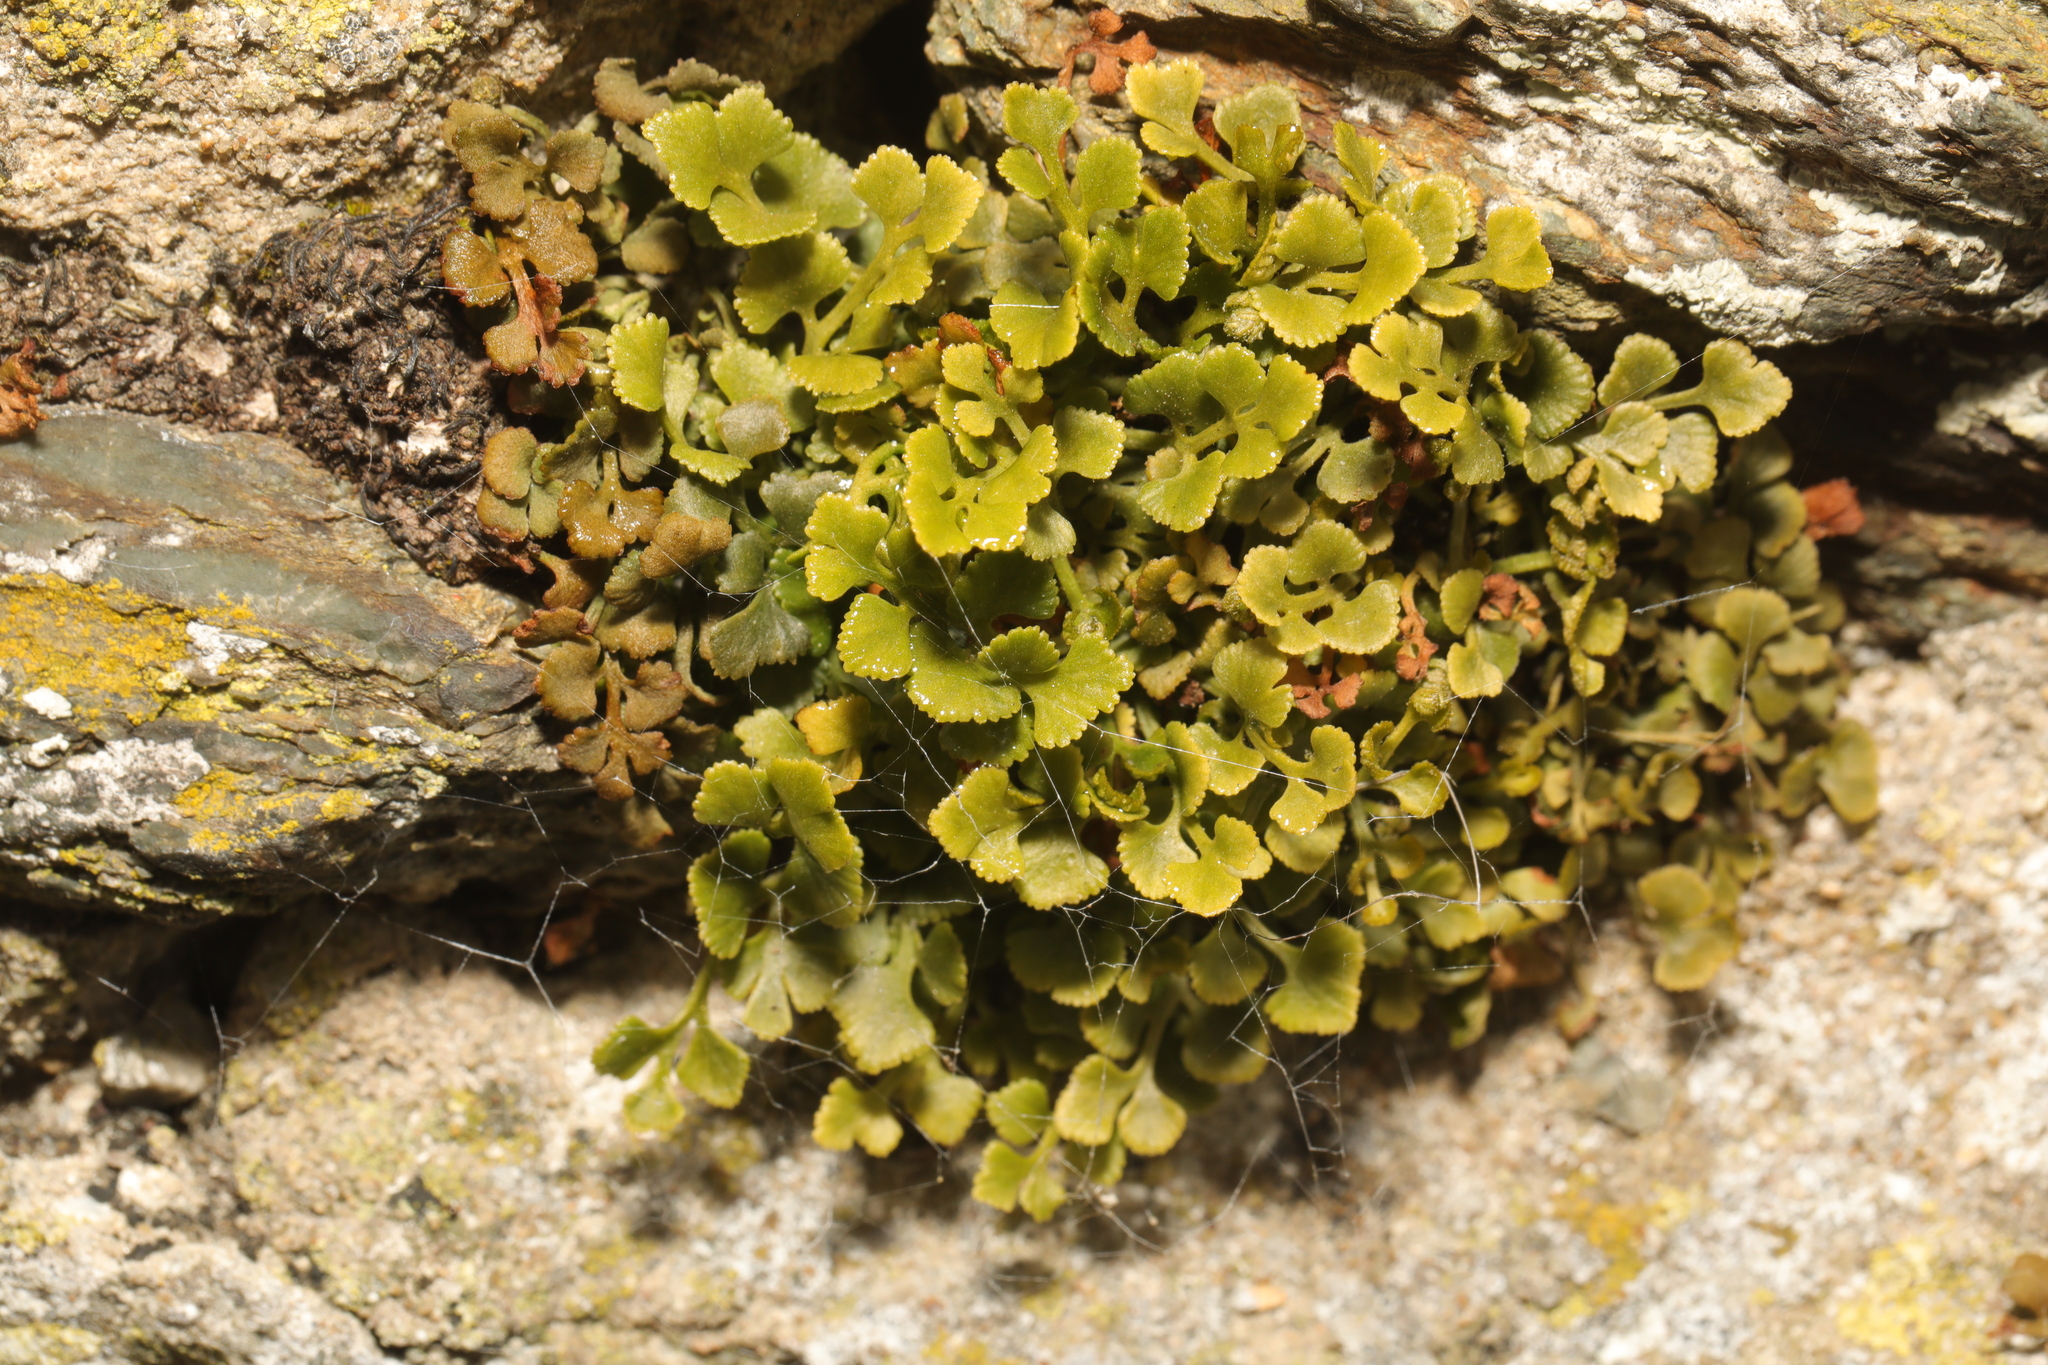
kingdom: Plantae
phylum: Tracheophyta
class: Polypodiopsida
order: Polypodiales
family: Aspleniaceae
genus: Asplenium
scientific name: Asplenium ruta-muraria
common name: Wall-rue
